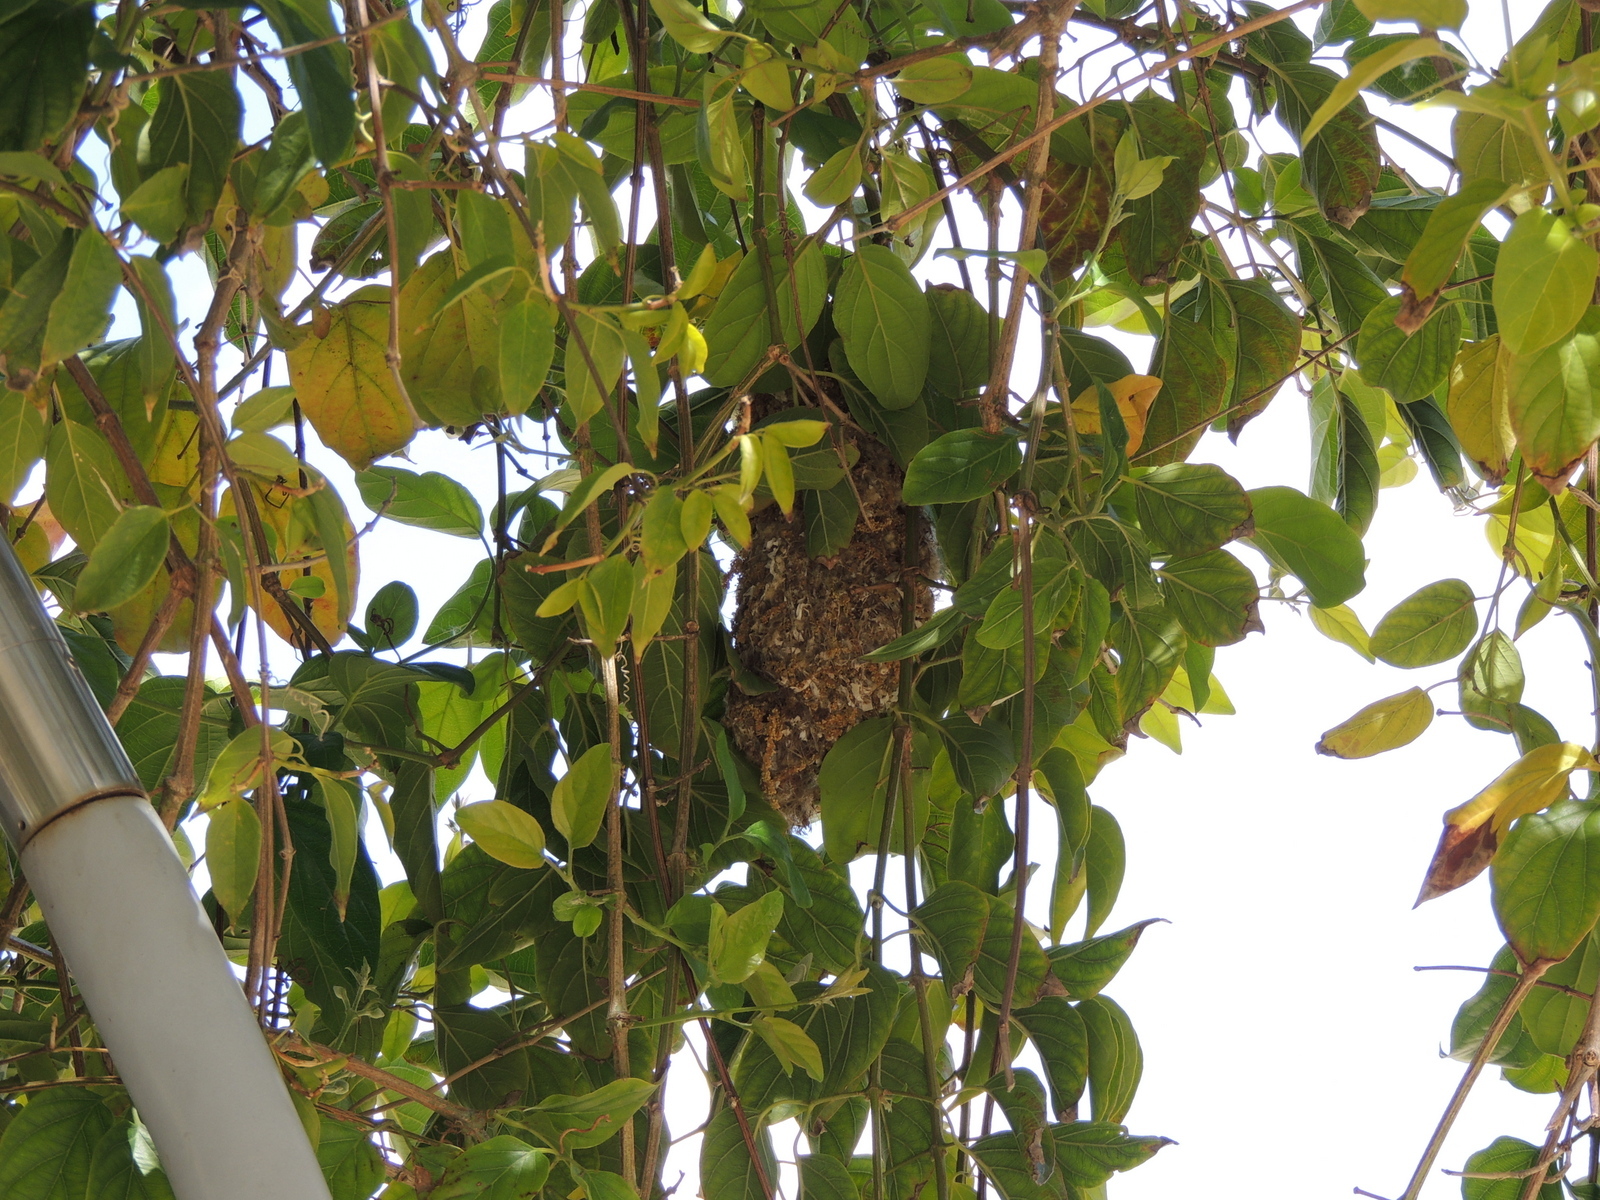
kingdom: Animalia
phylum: Chordata
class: Aves
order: Passeriformes
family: Aegithalidae
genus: Psaltriparus
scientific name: Psaltriparus minimus
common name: American bushtit
